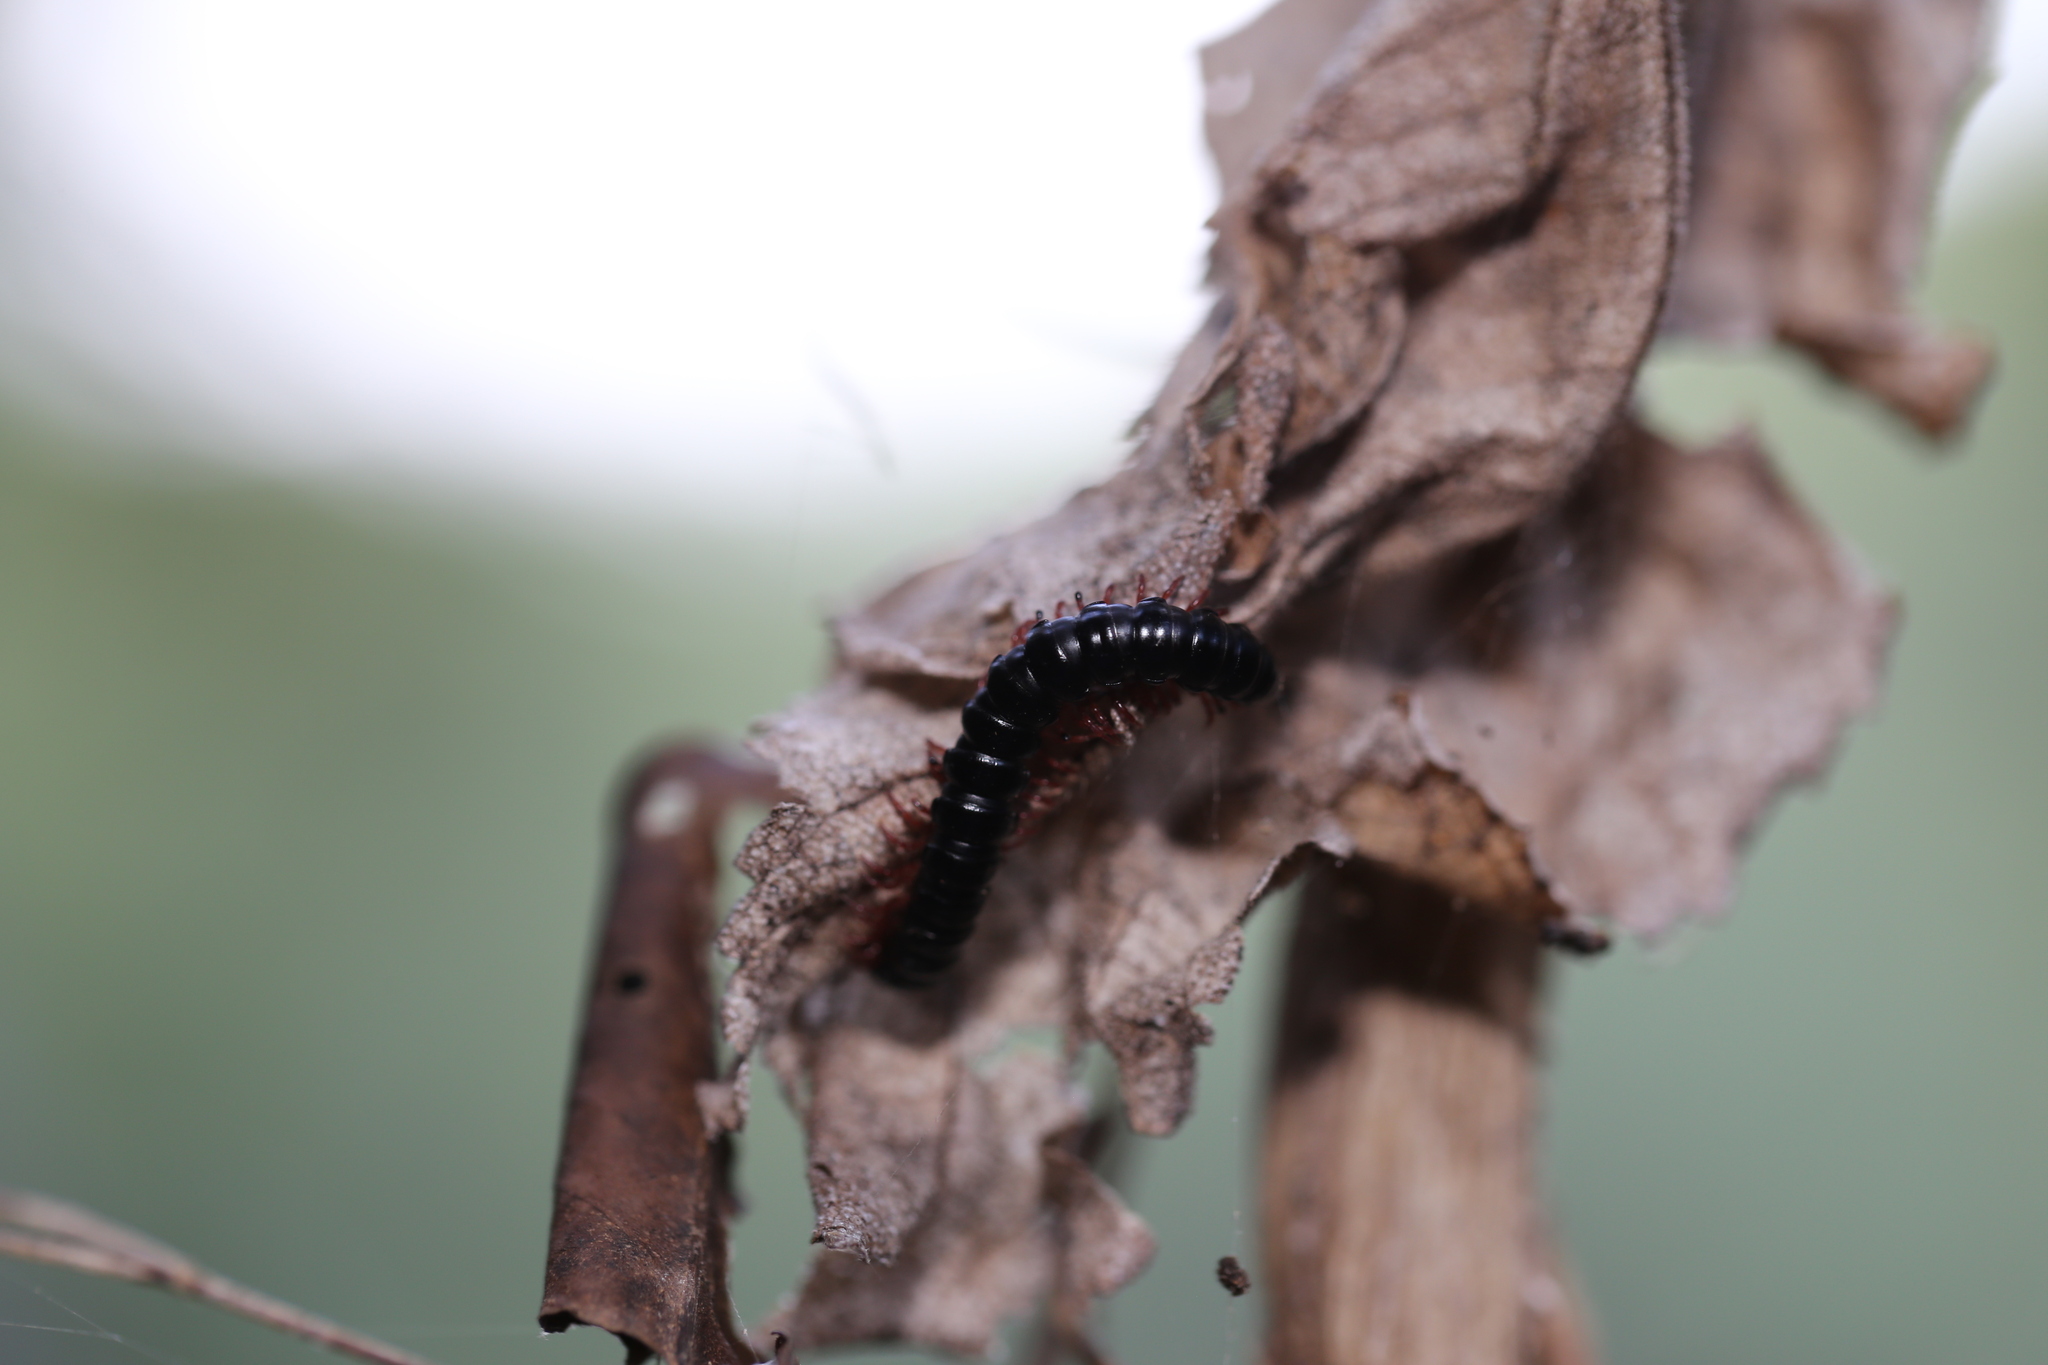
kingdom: Animalia
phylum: Arthropoda
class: Diplopoda
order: Polydesmida
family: Paradoxosomatidae
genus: Heterocladosoma
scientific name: Heterocladosoma
